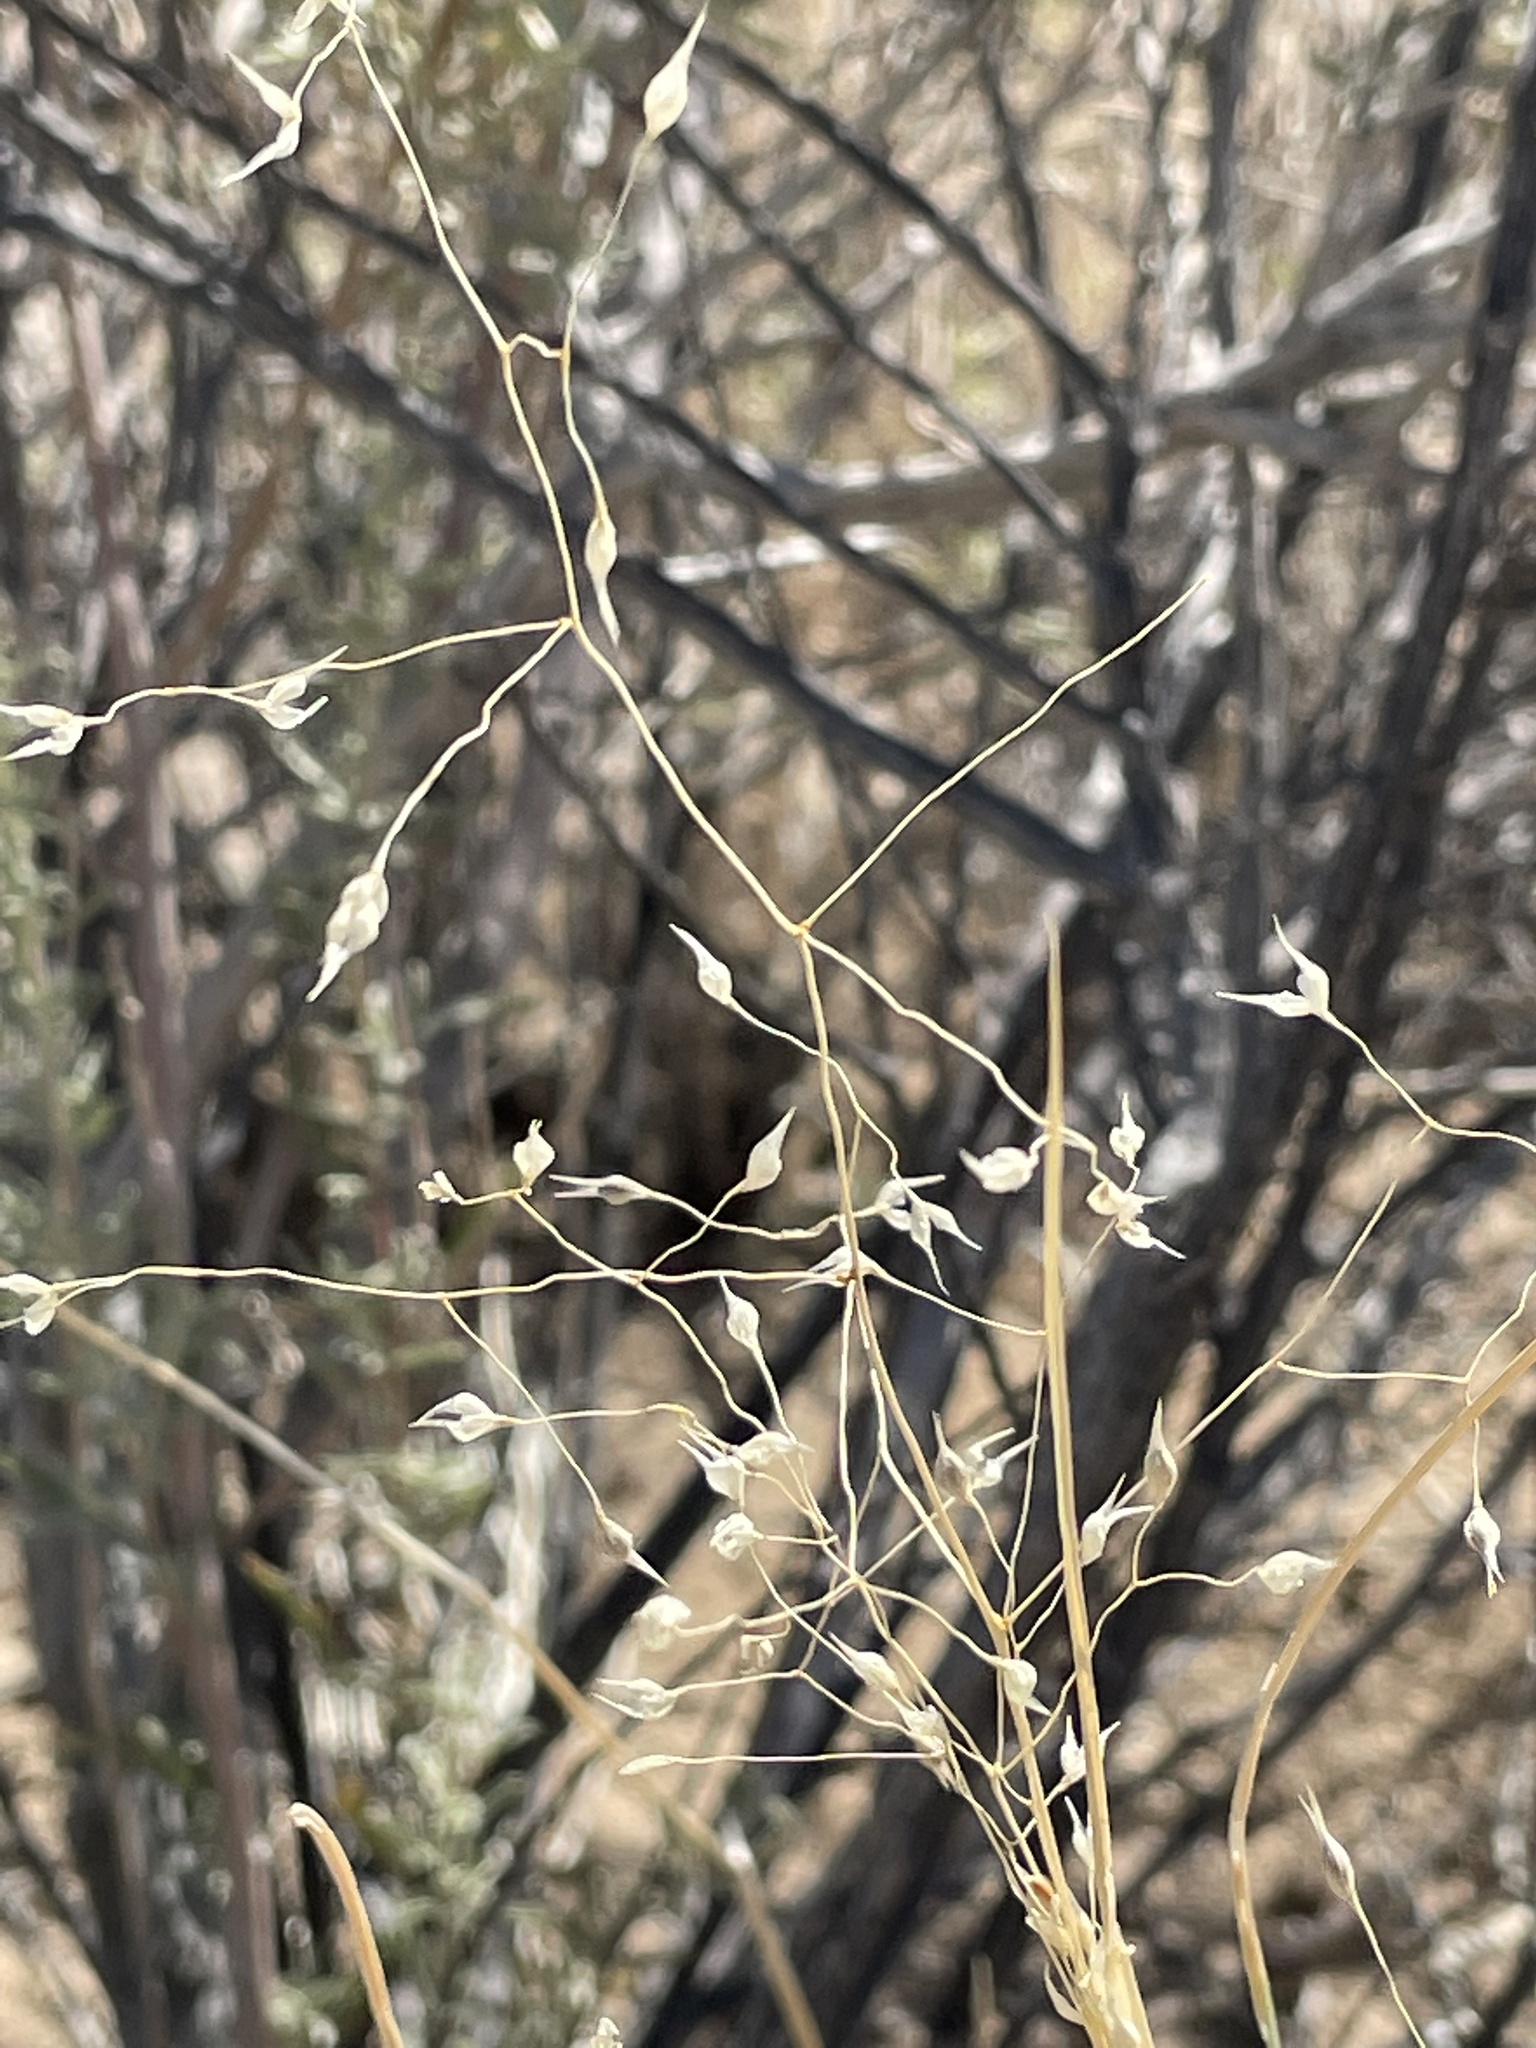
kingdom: Plantae
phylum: Tracheophyta
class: Liliopsida
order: Poales
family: Poaceae
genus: Eriocoma
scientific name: Eriocoma hymenoides
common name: Indian mountain ricegrass
